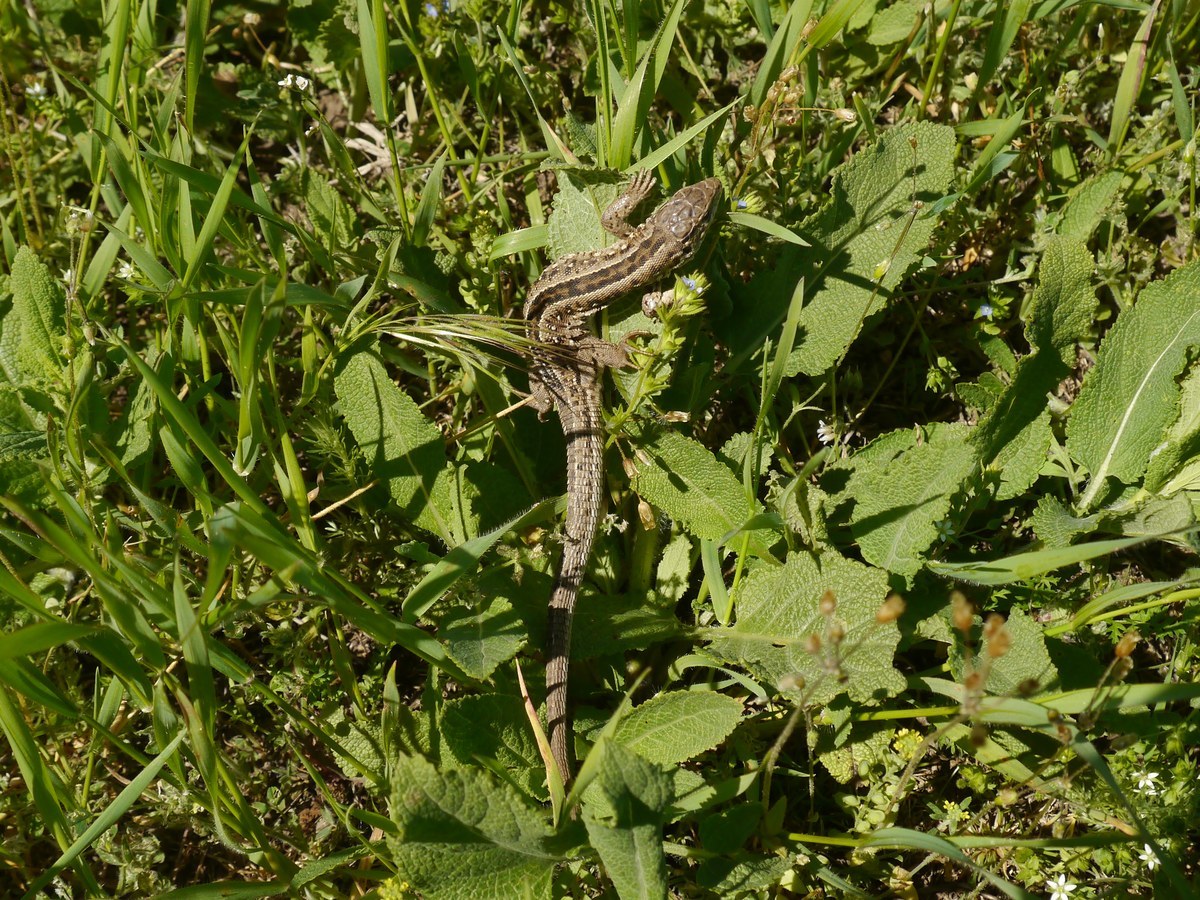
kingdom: Animalia
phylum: Chordata
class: Squamata
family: Lacertidae
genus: Lacerta
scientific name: Lacerta agilis
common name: Sand lizard
